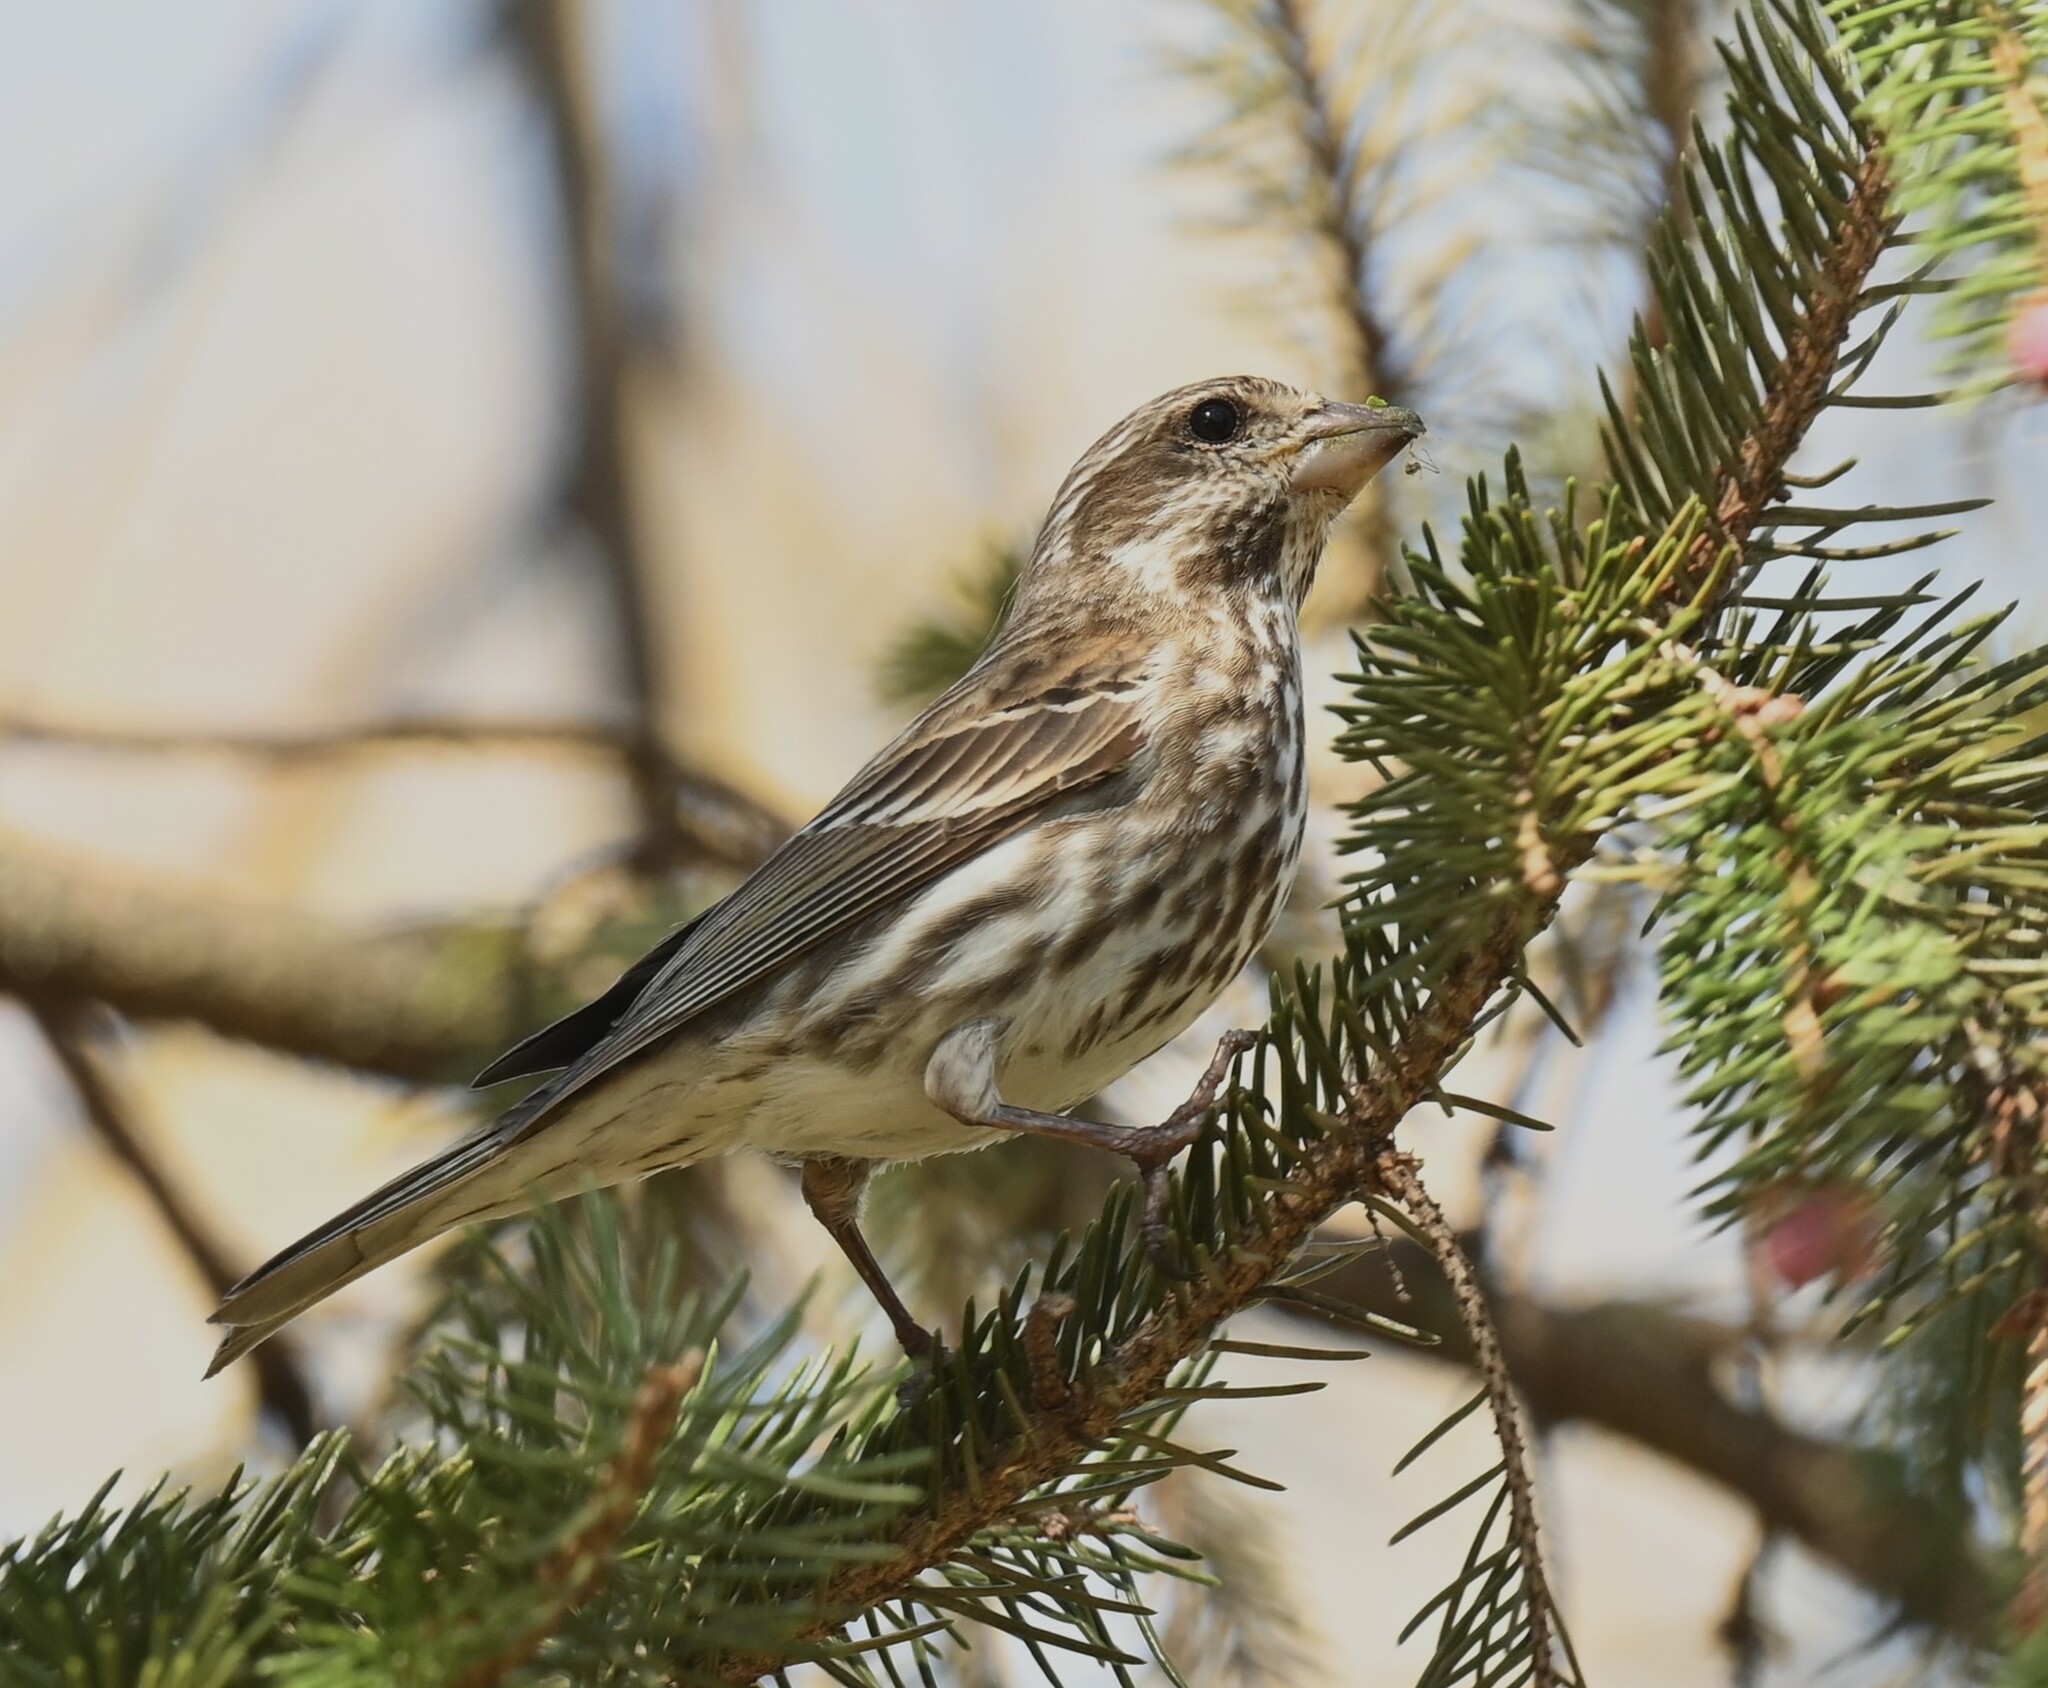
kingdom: Animalia
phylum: Chordata
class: Aves
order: Passeriformes
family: Fringillidae
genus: Haemorhous
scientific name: Haemorhous purpureus
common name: Purple finch
